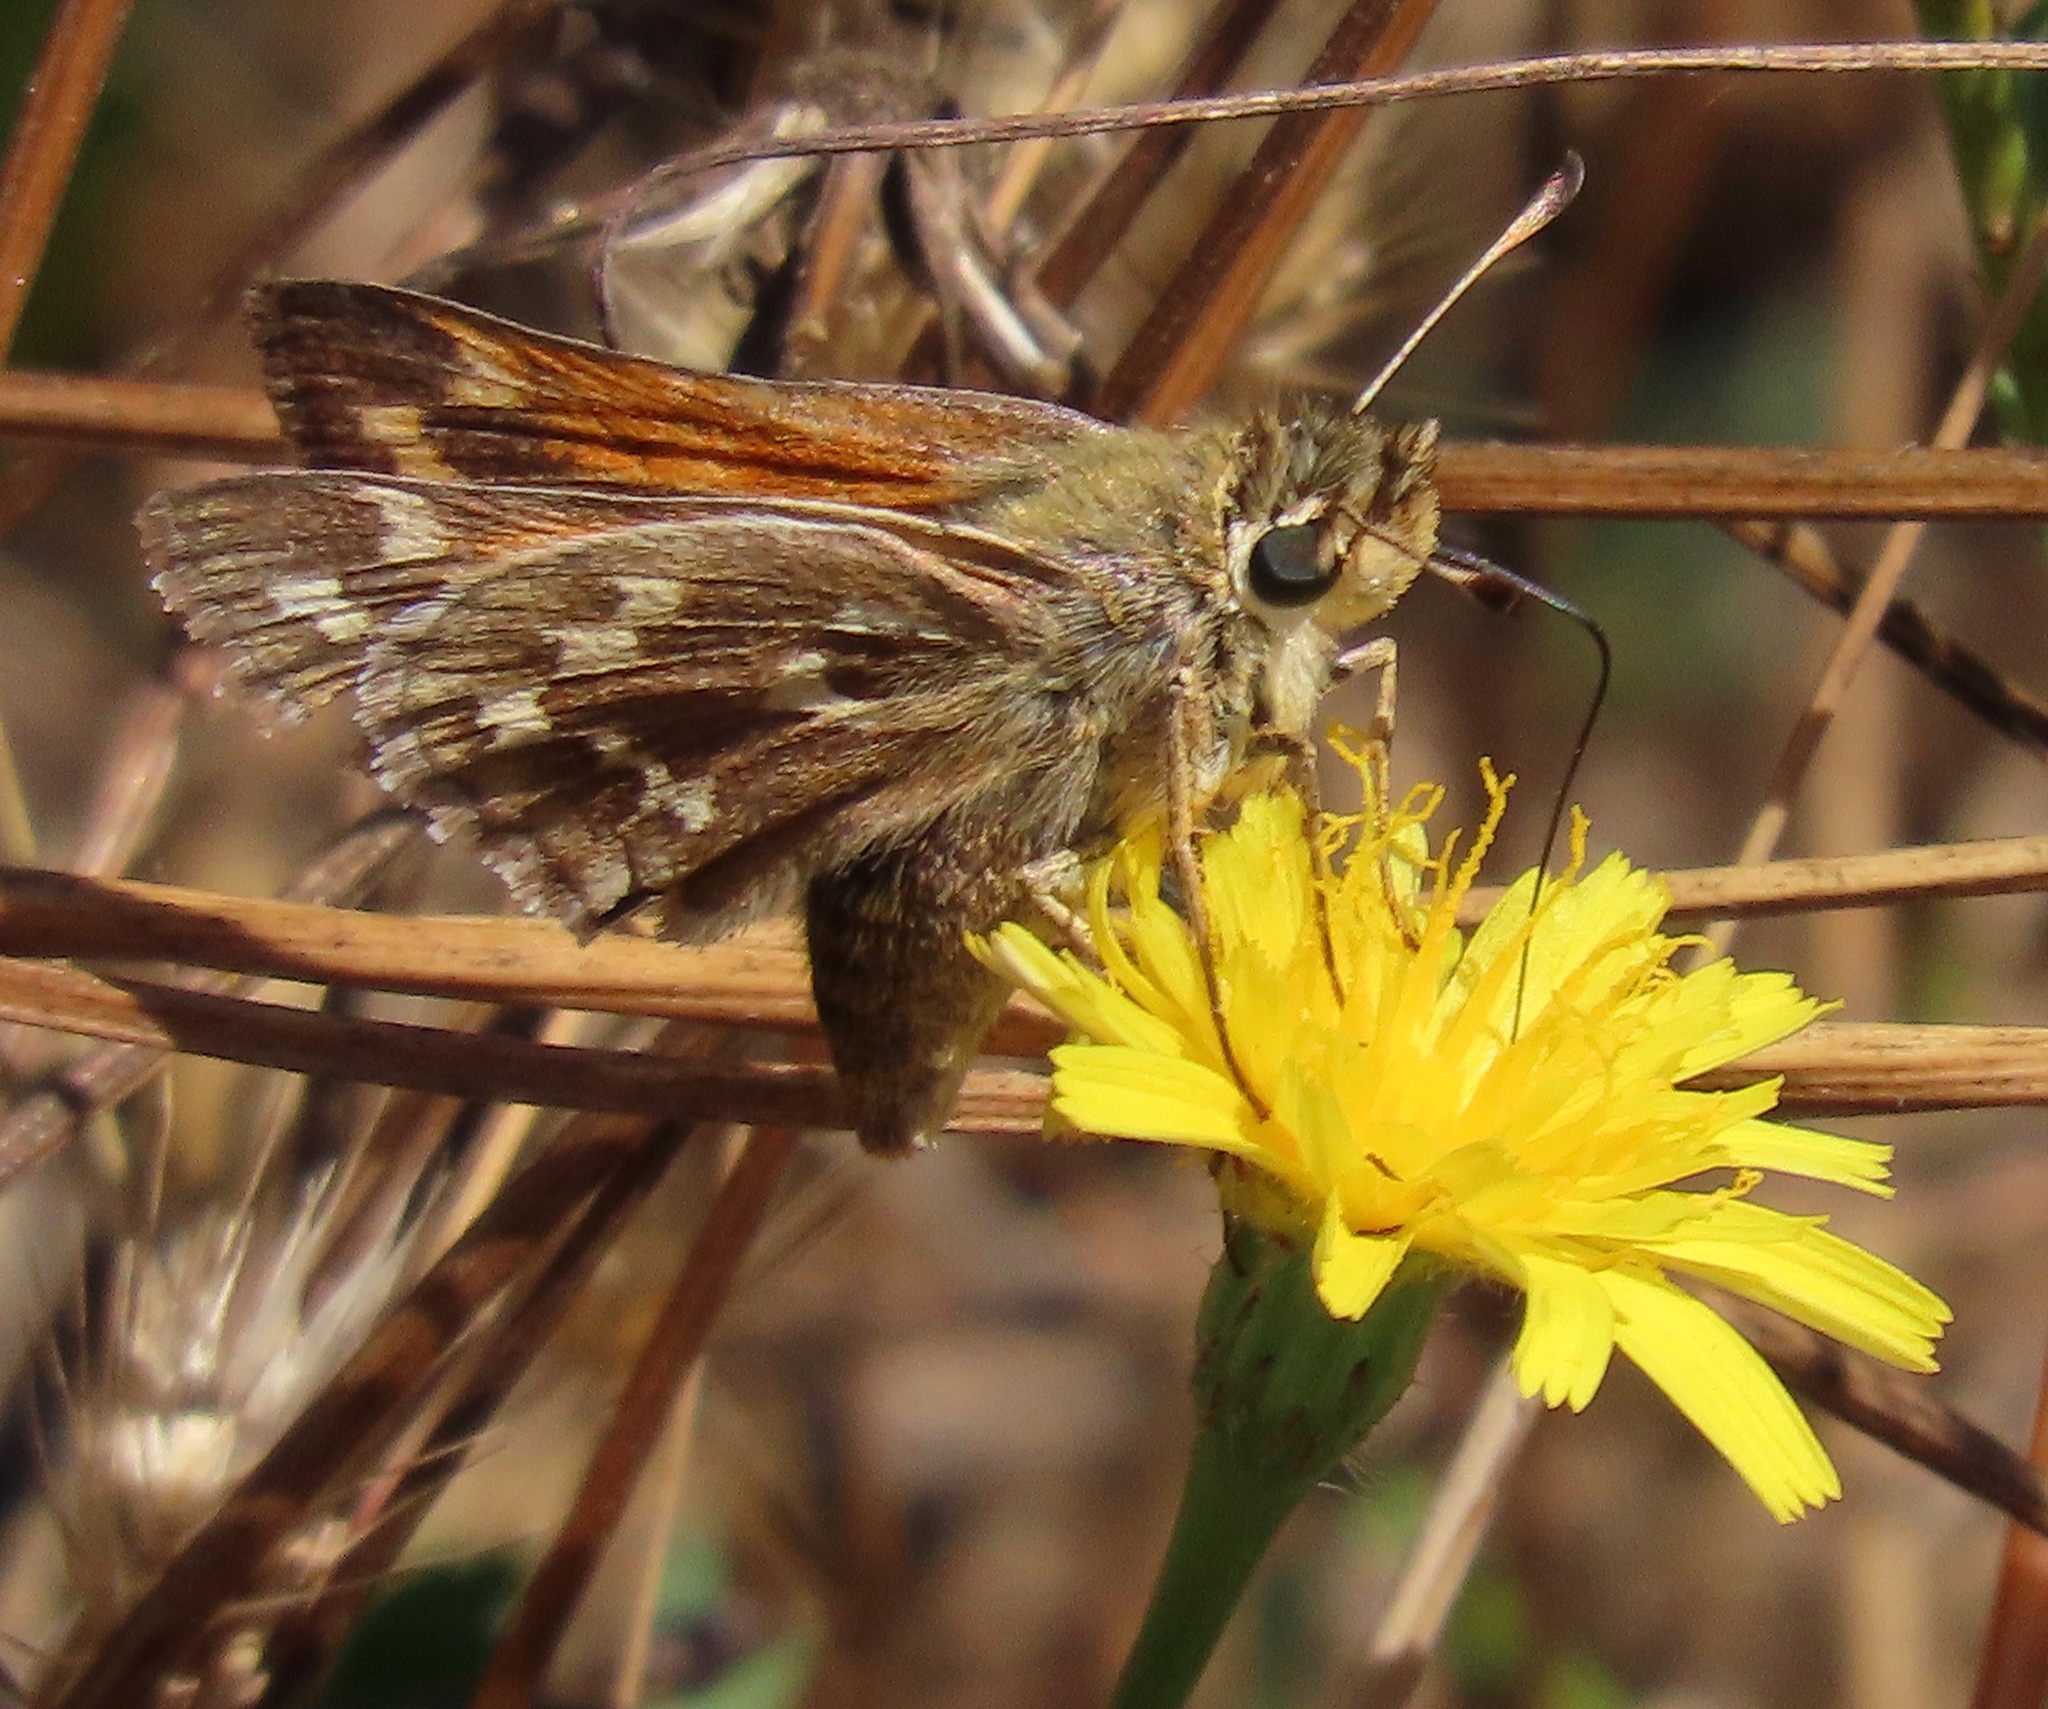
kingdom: Animalia
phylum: Arthropoda
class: Insecta
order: Lepidoptera
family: Hesperiidae
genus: Hesperia
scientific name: Hesperia harpalus
